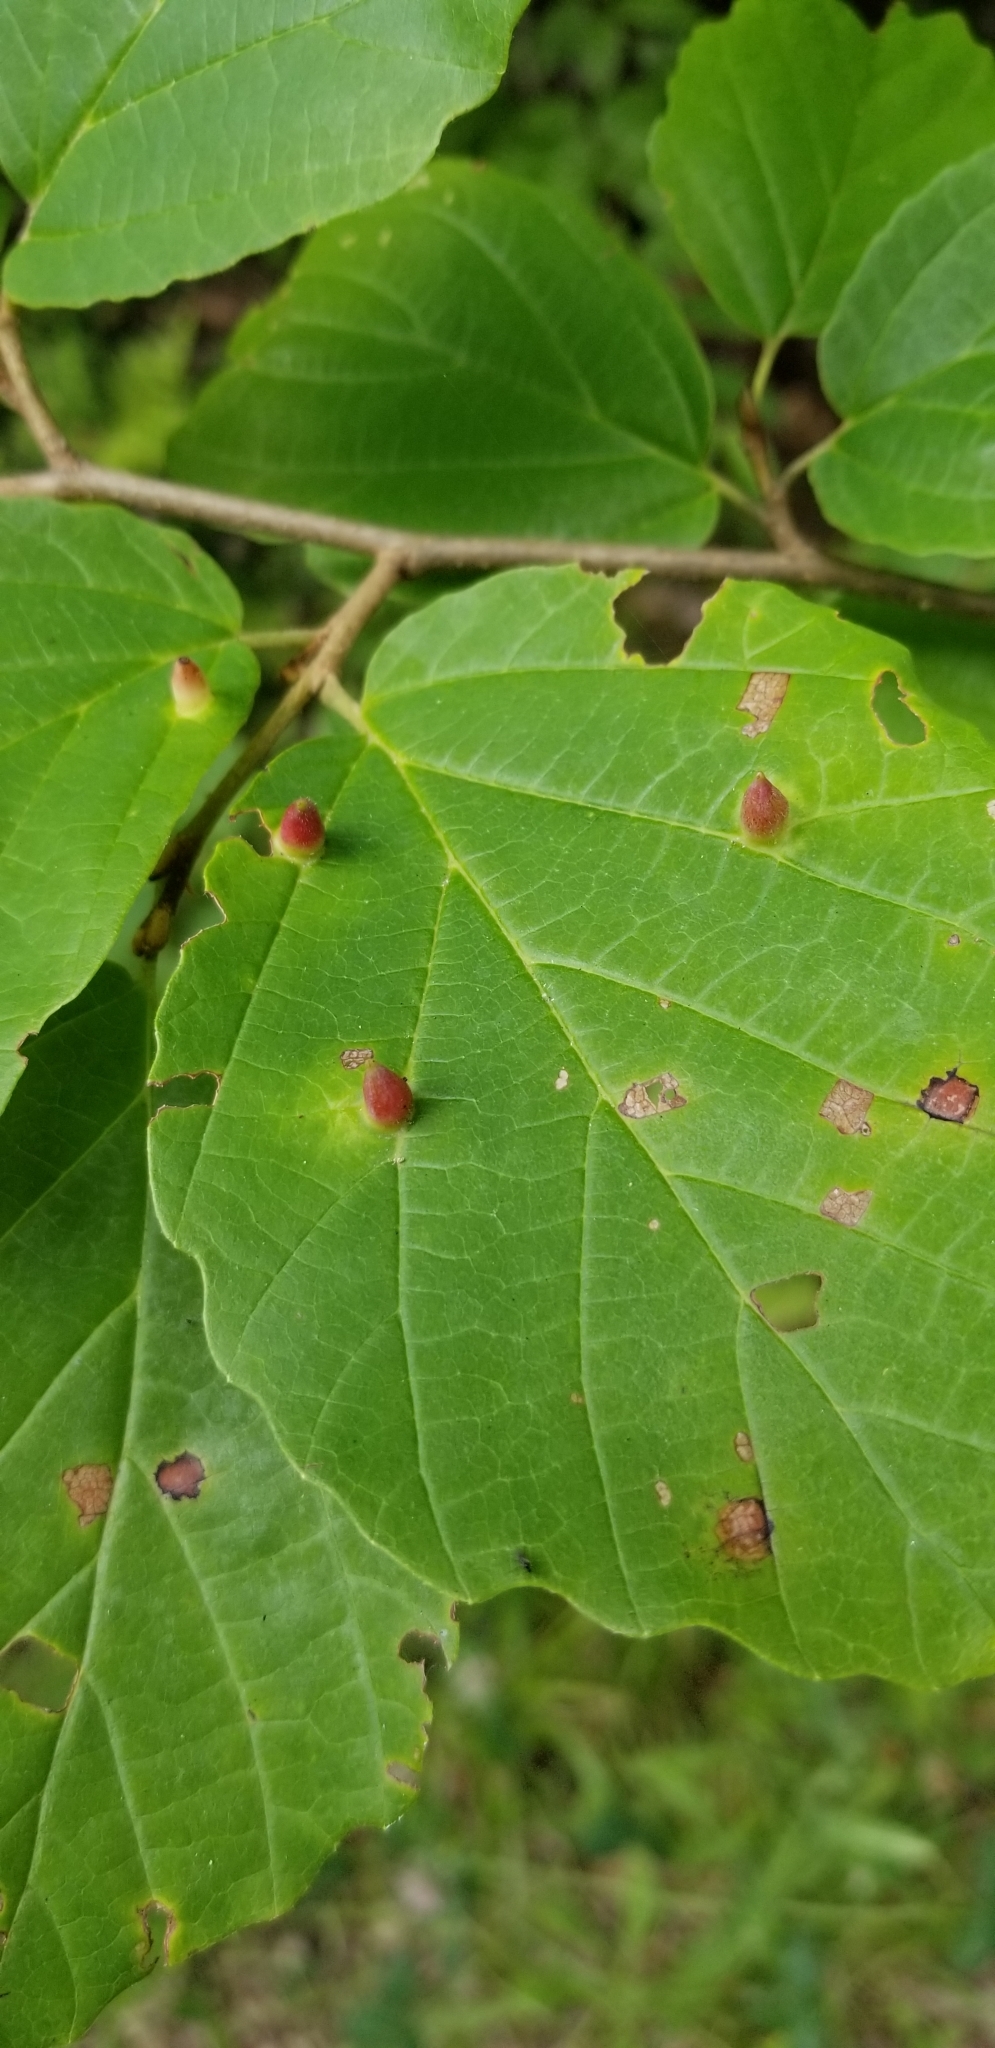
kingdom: Animalia
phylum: Arthropoda
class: Insecta
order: Hemiptera
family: Aphididae
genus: Hormaphis
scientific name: Hormaphis hamamelidis
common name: Witch-hazel cone gall aphid
